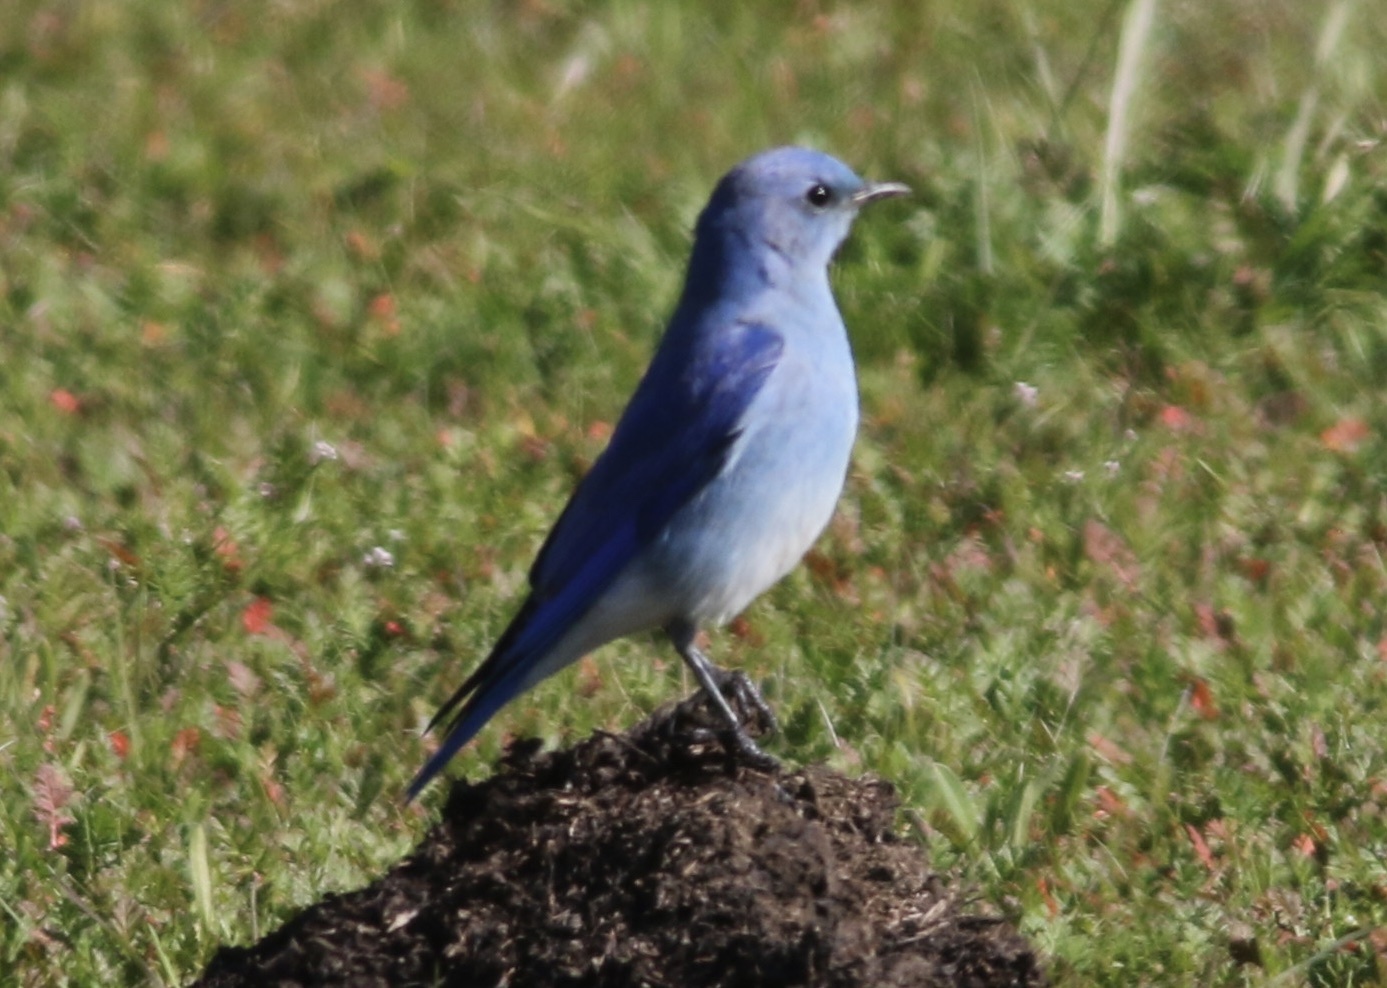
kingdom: Animalia
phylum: Chordata
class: Aves
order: Passeriformes
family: Turdidae
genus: Sialia
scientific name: Sialia currucoides
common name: Mountain bluebird
